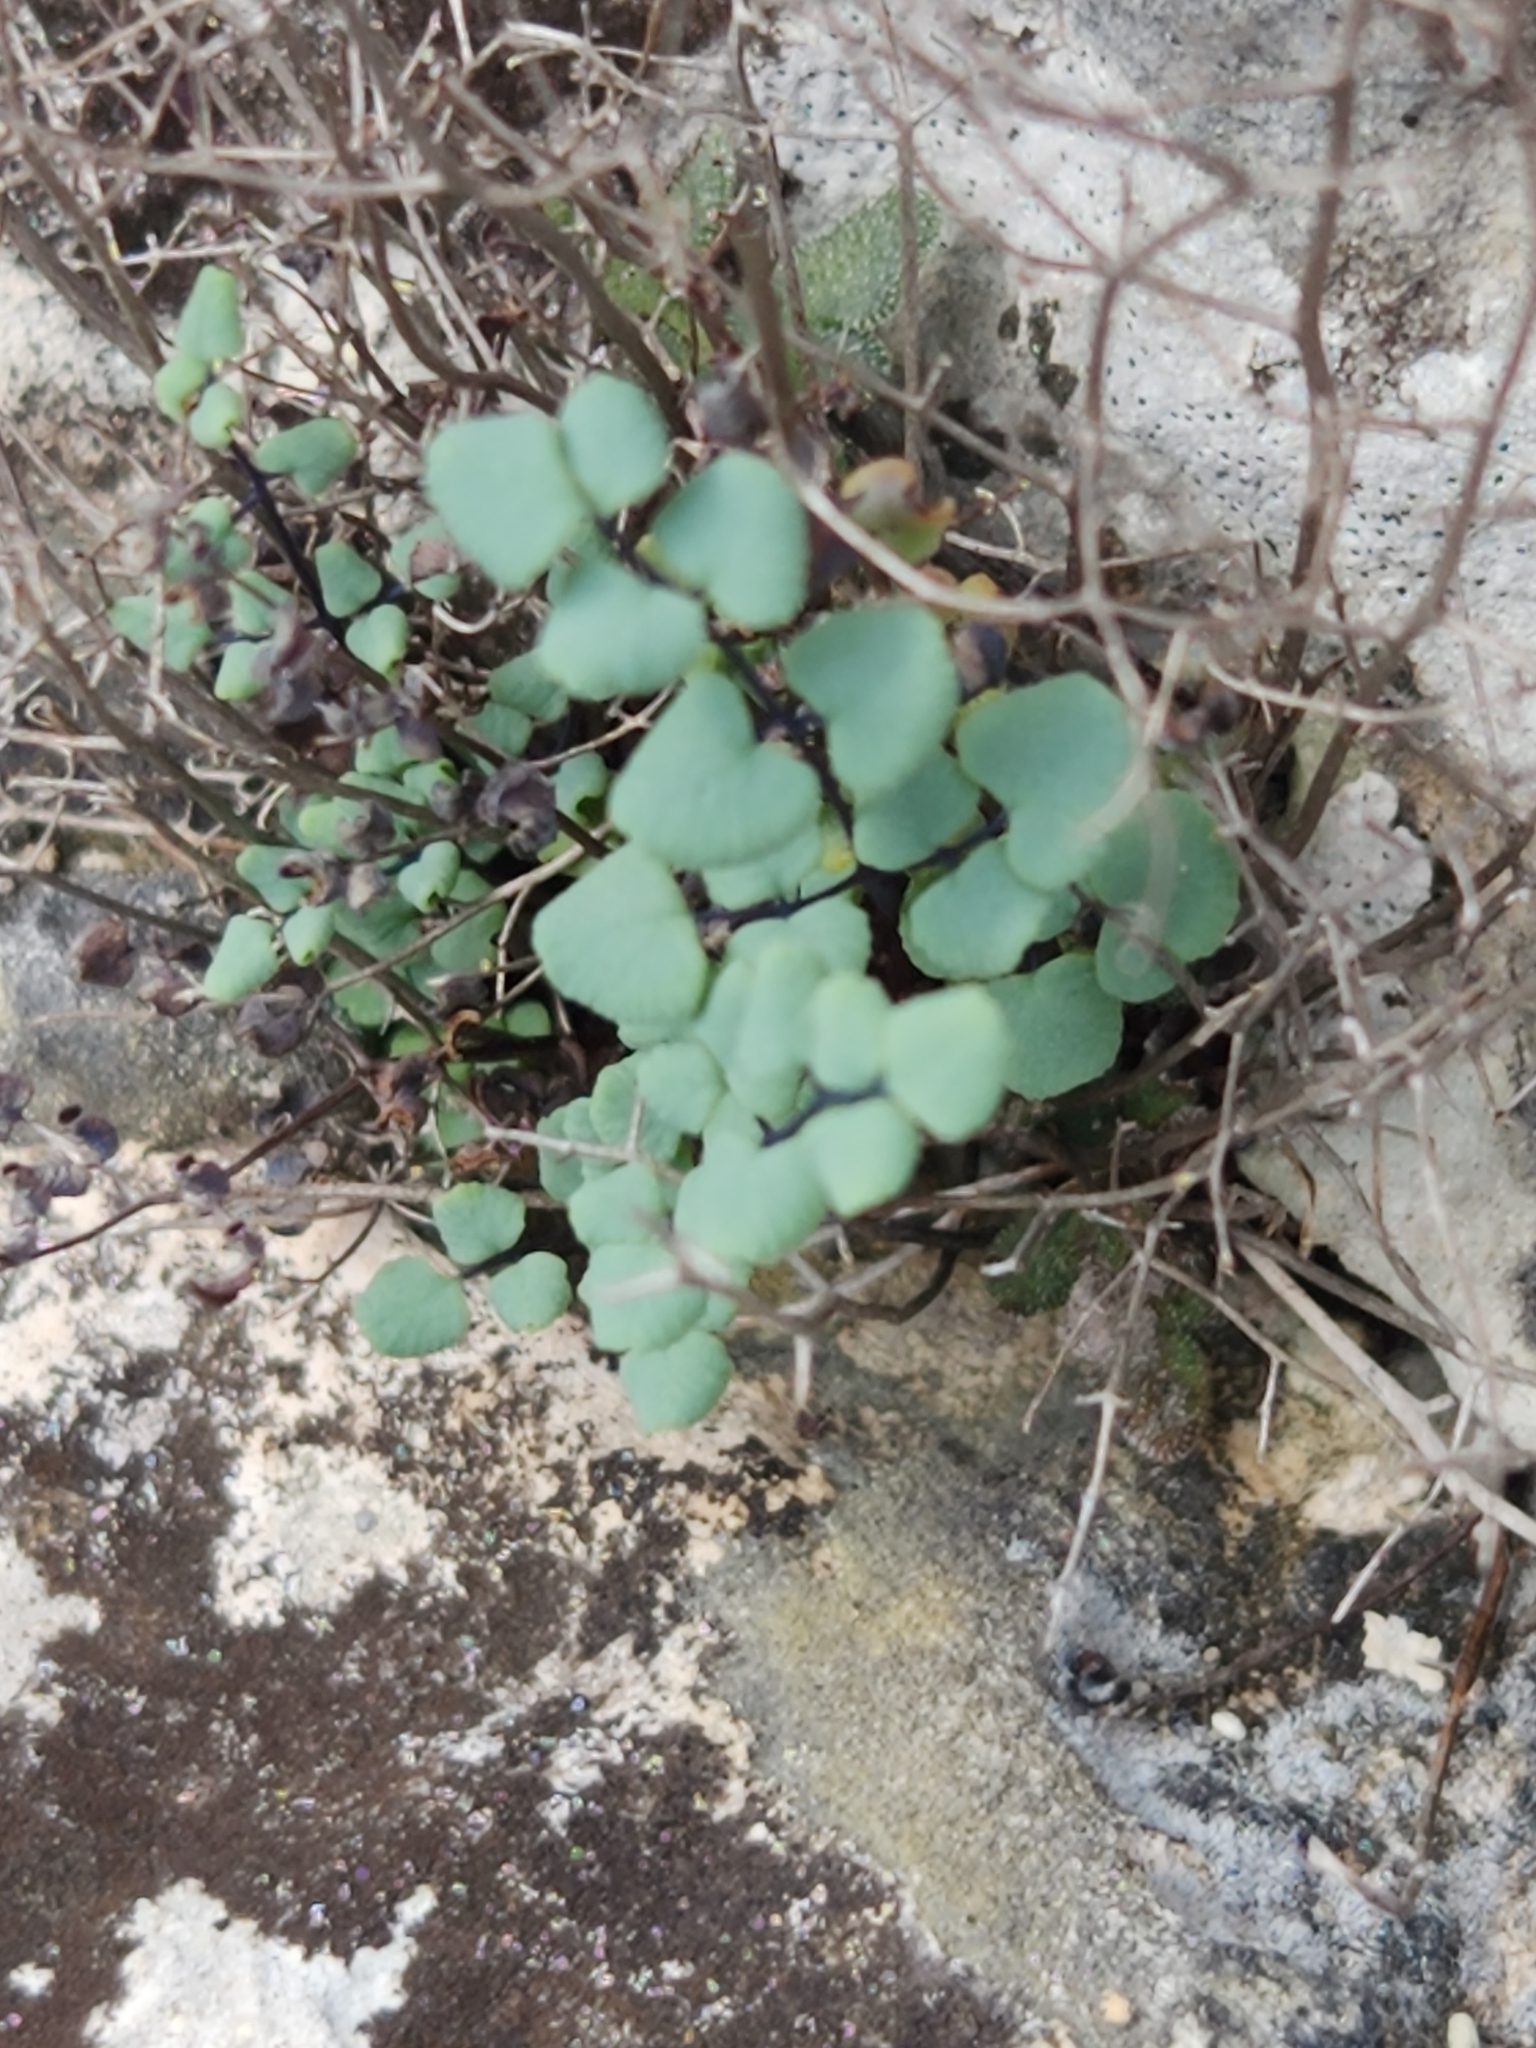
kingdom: Plantae
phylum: Tracheophyta
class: Polypodiopsida
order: Polypodiales
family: Pteridaceae
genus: Argyrochosma
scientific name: Argyrochosma microphylla
